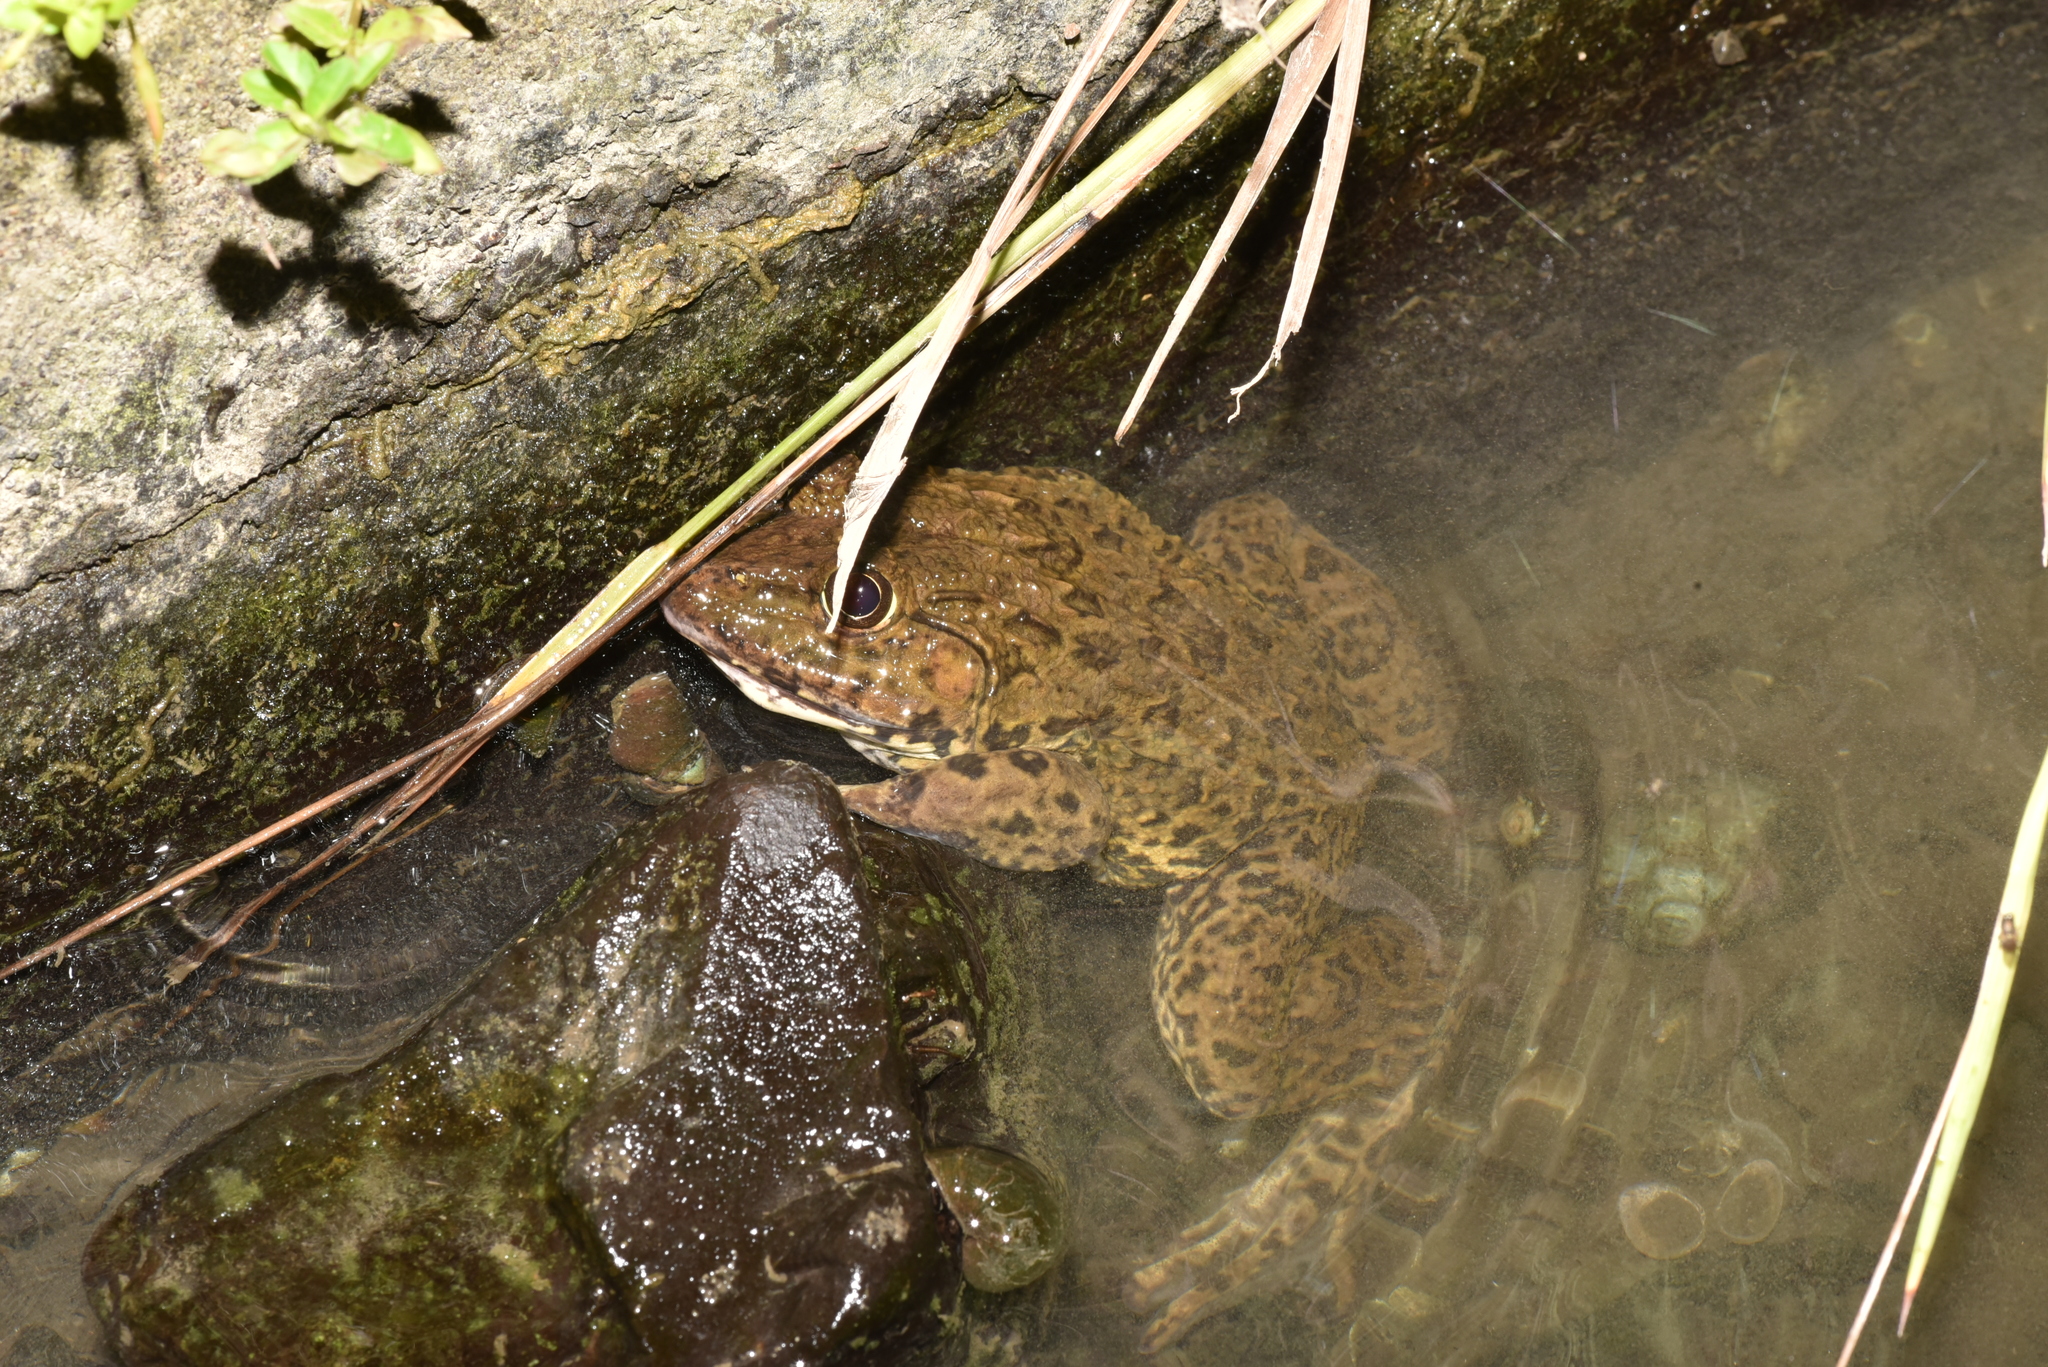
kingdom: Animalia
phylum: Chordata
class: Amphibia
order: Anura
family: Dicroglossidae
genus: Hoplobatrachus
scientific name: Hoplobatrachus rugulosus
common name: Chinese edible frog
